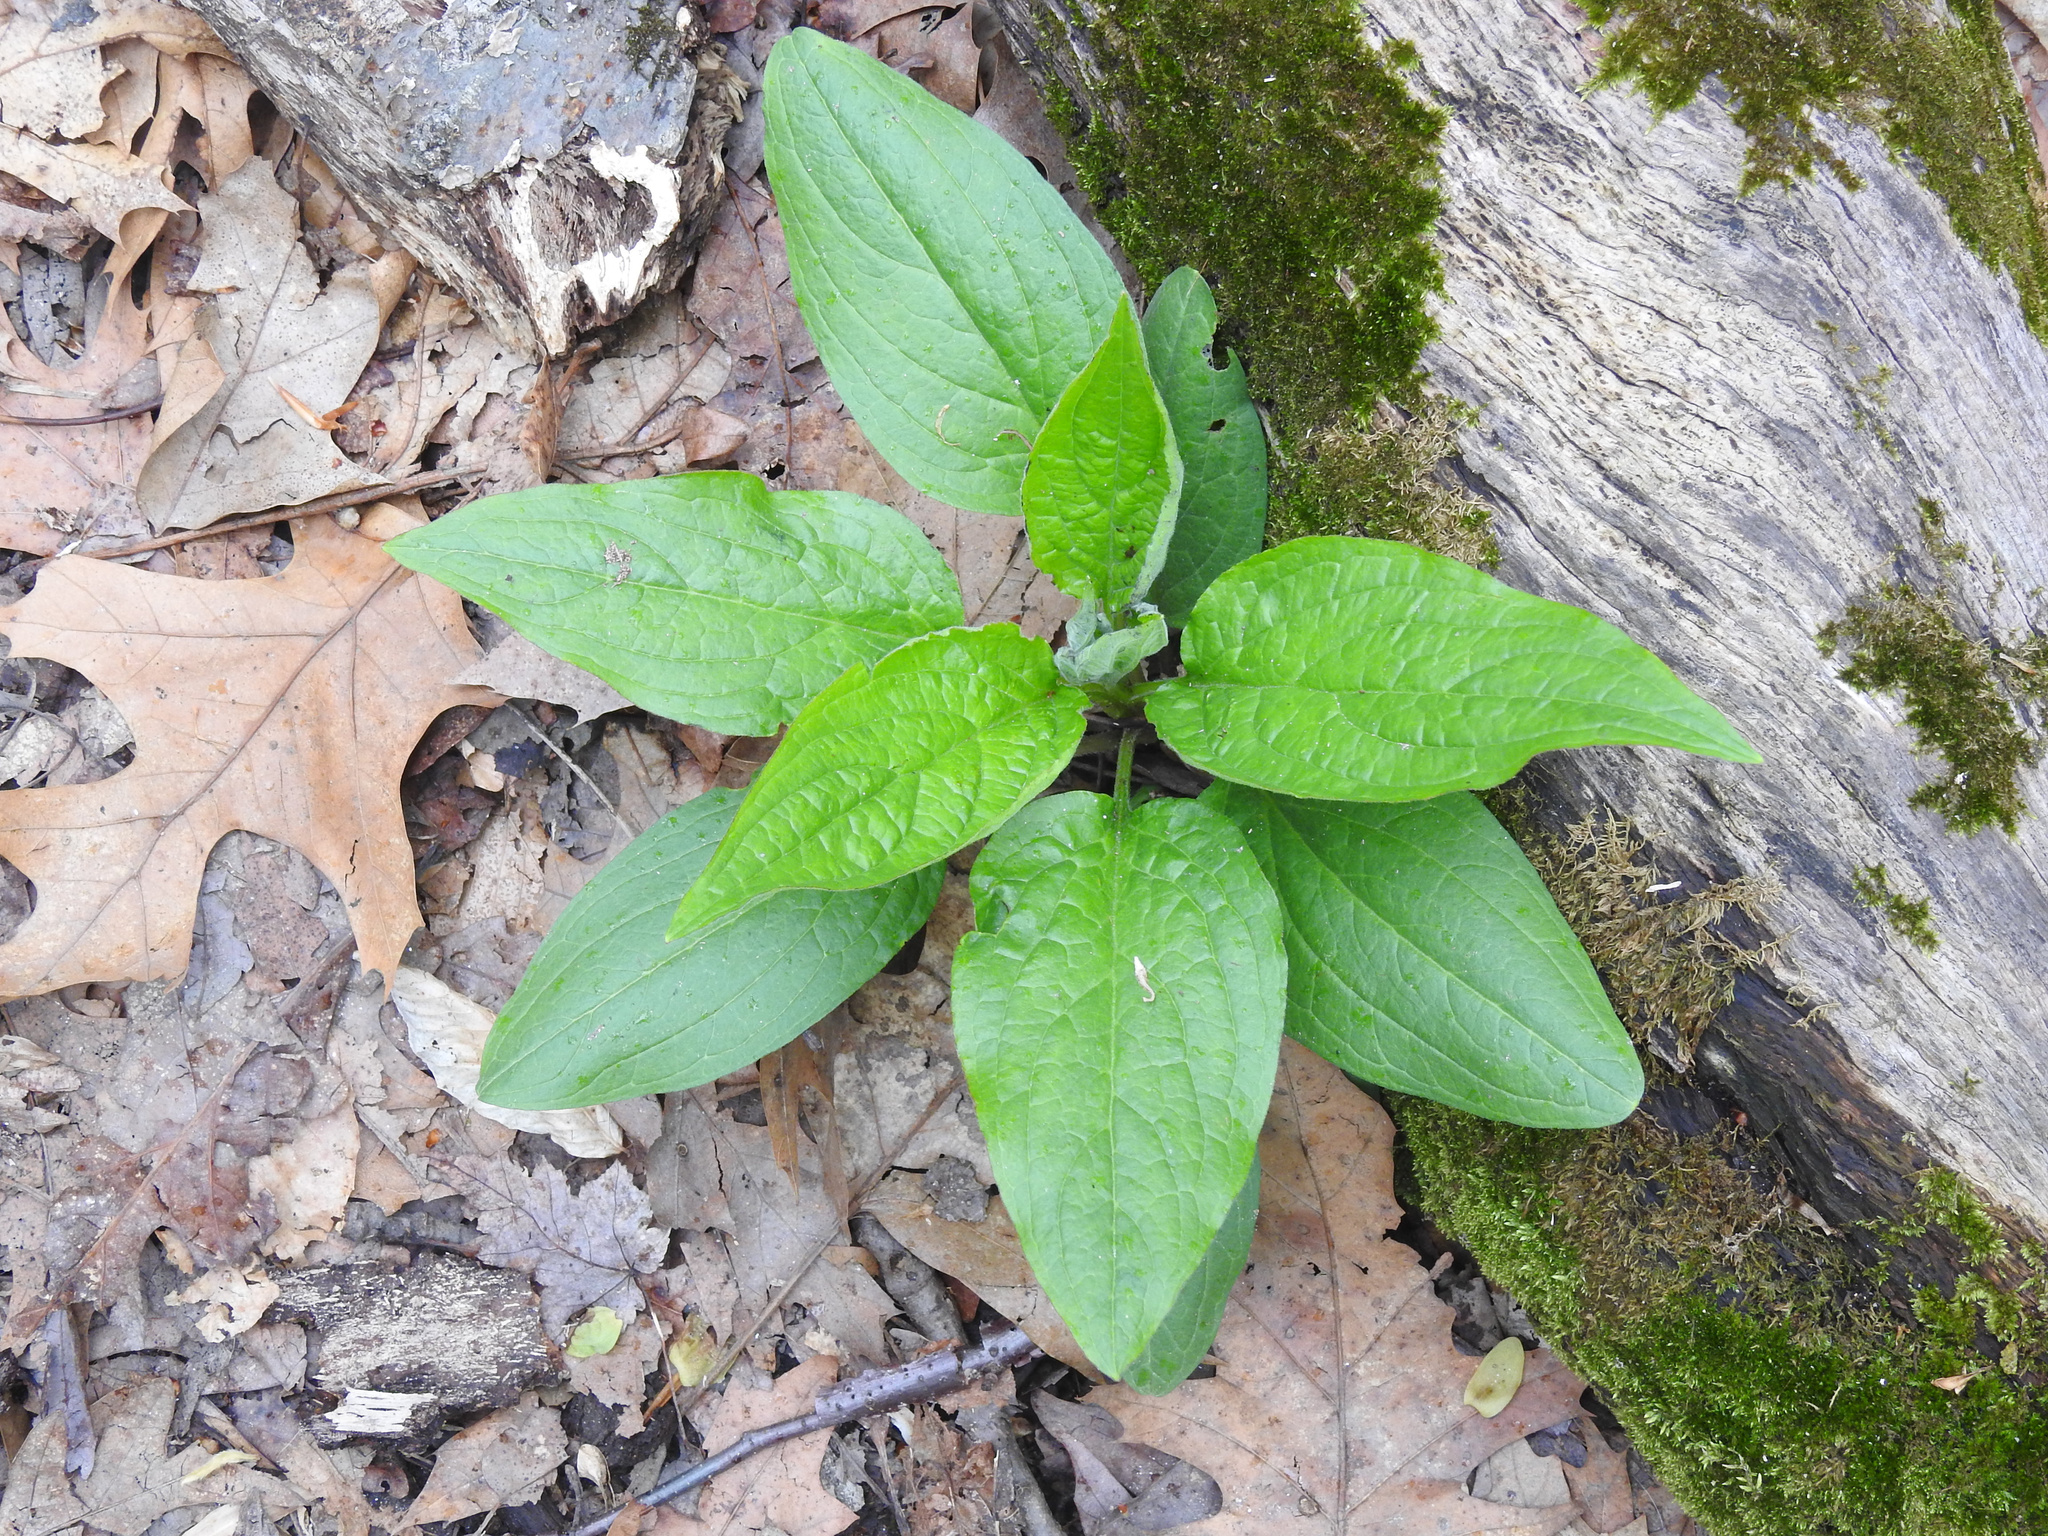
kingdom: Plantae
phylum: Tracheophyta
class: Magnoliopsida
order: Boraginales
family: Boraginaceae
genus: Hackelia
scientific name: Hackelia virginiana
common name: Beggar's-lice
